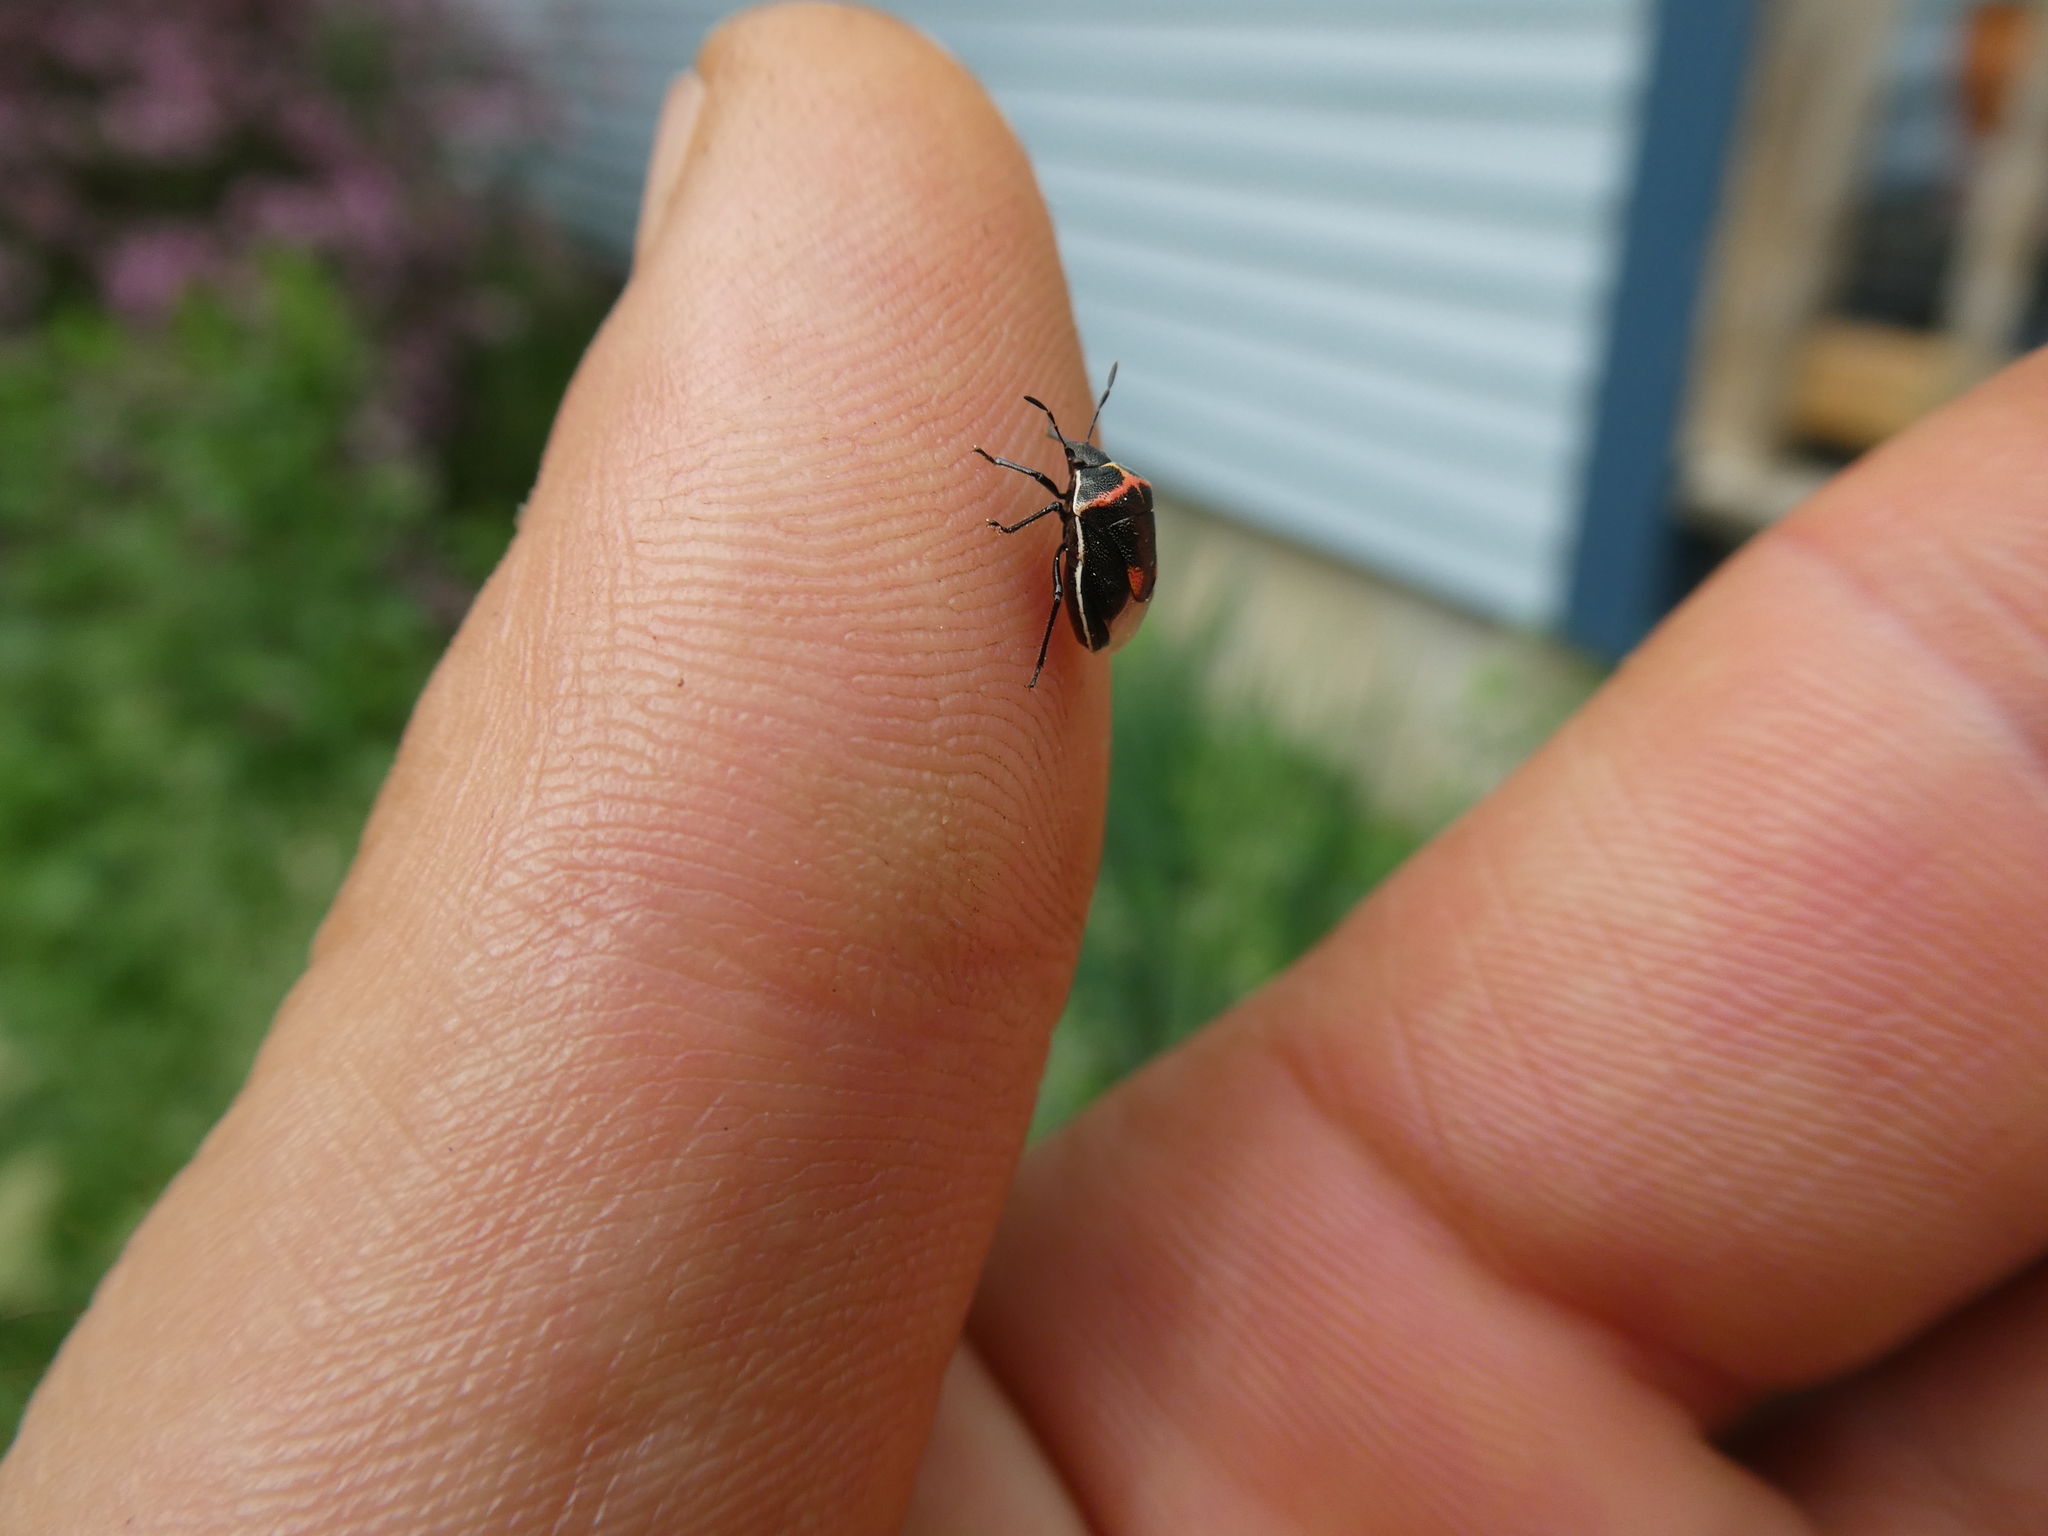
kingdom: Animalia
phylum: Arthropoda
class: Insecta
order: Hemiptera
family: Pentatomidae
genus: Cosmopepla
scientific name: Cosmopepla lintneriana
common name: Twice-stabbed stink bug
